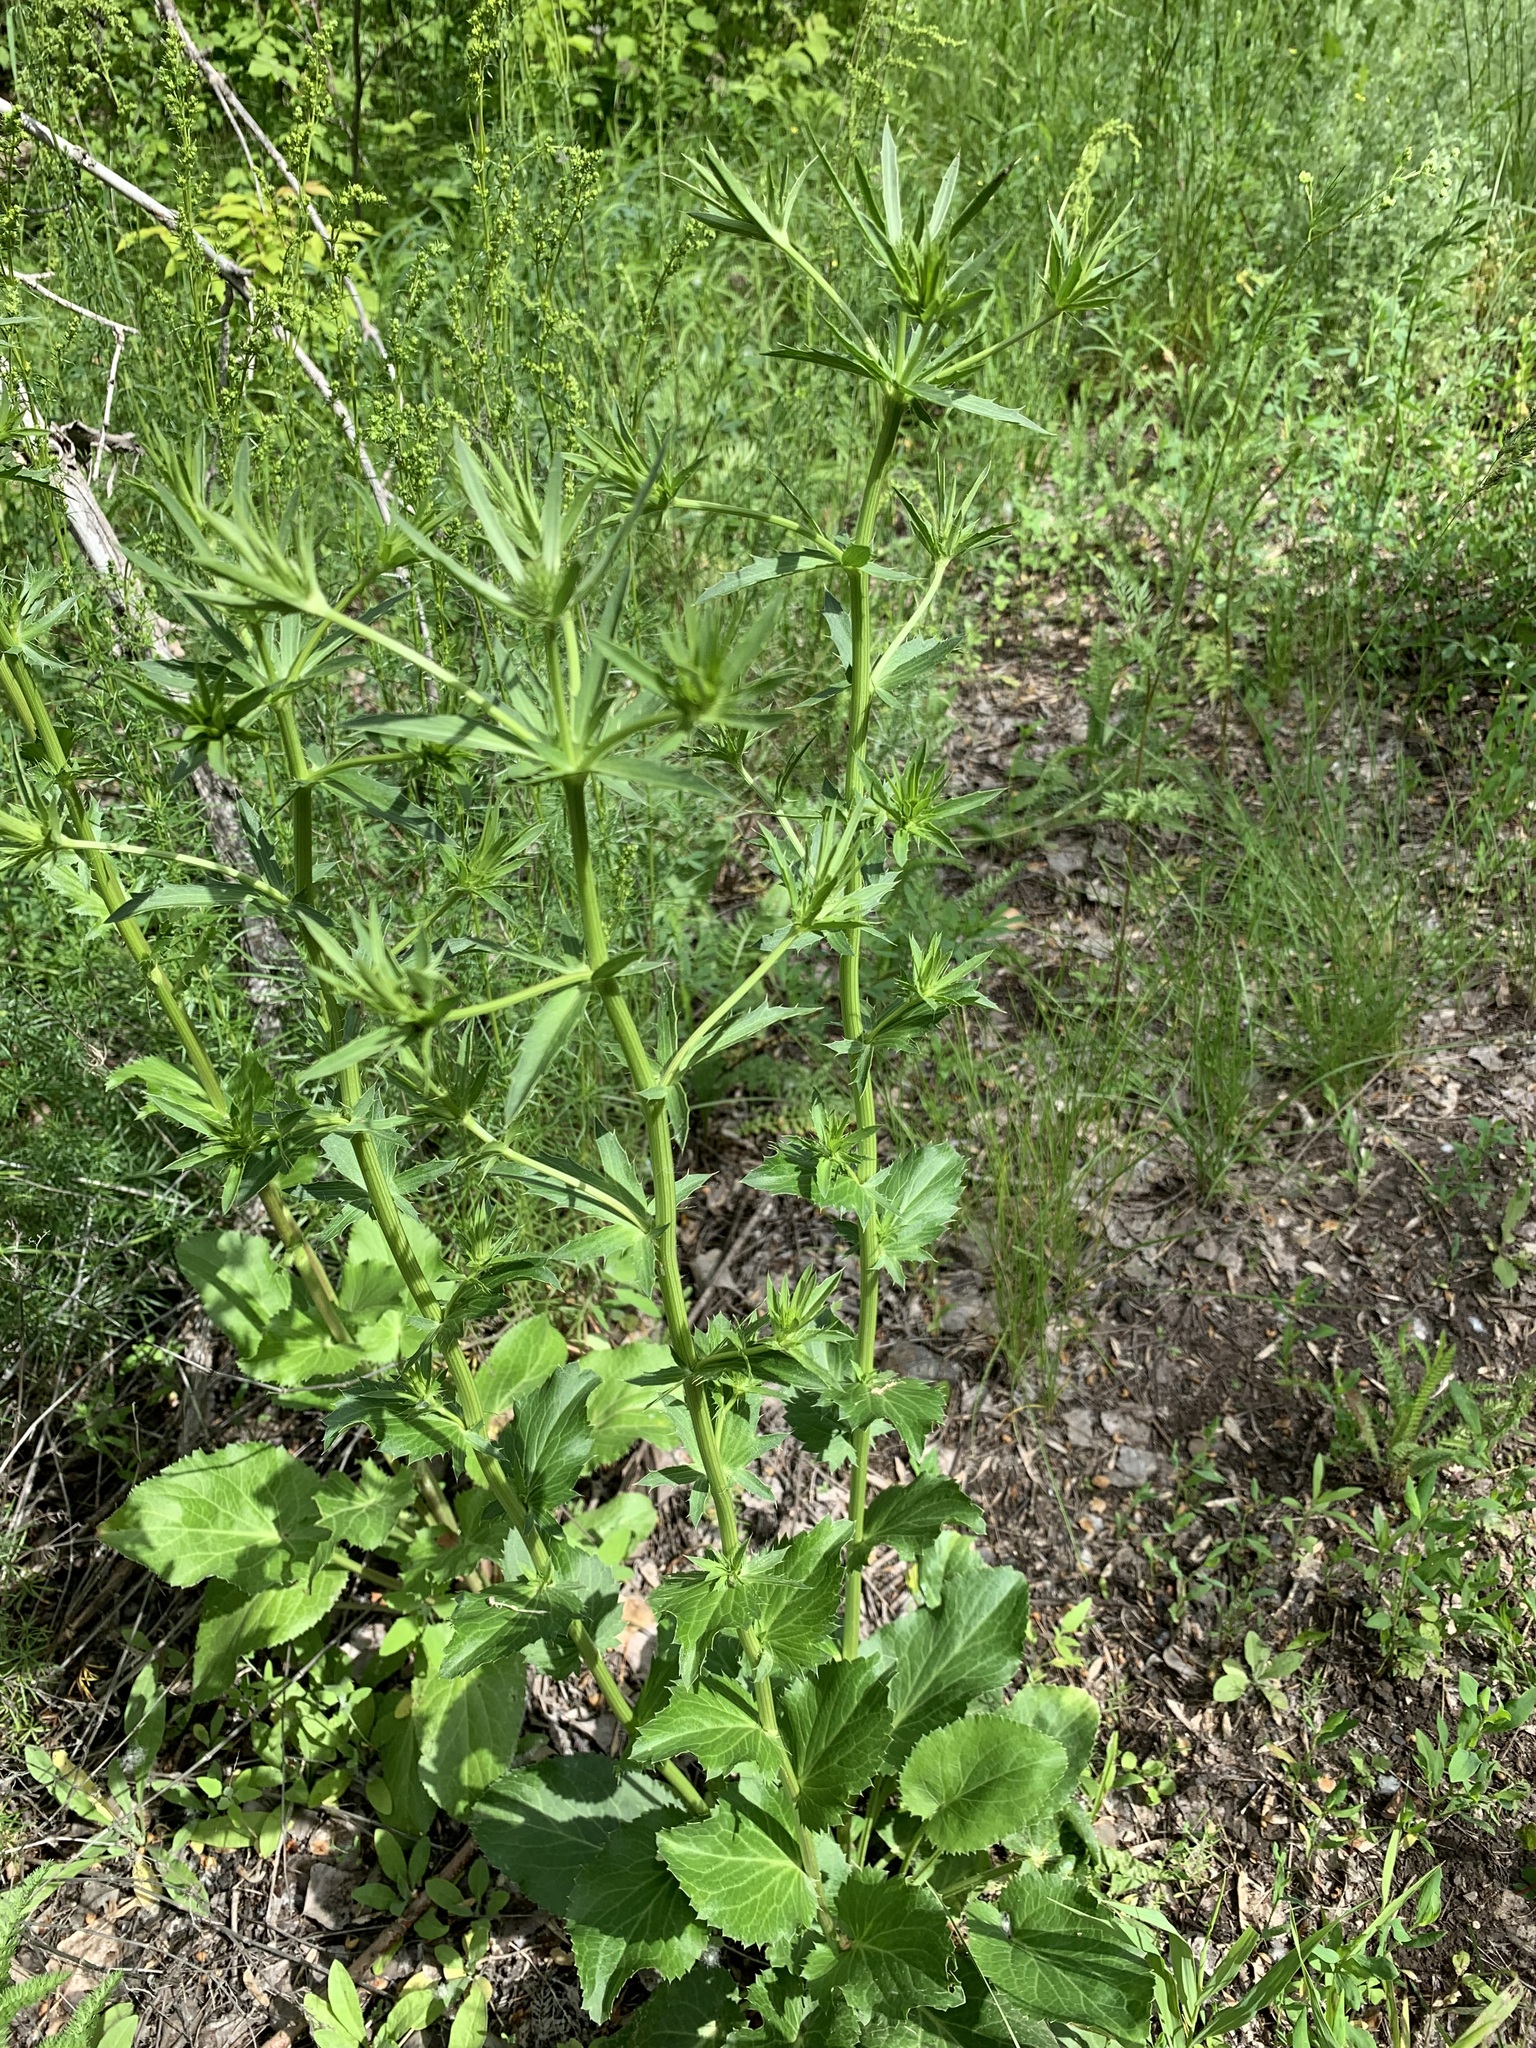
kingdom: Plantae
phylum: Tracheophyta
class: Magnoliopsida
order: Apiales
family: Apiaceae
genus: Eryngium
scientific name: Eryngium planum
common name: Blue eryngo
